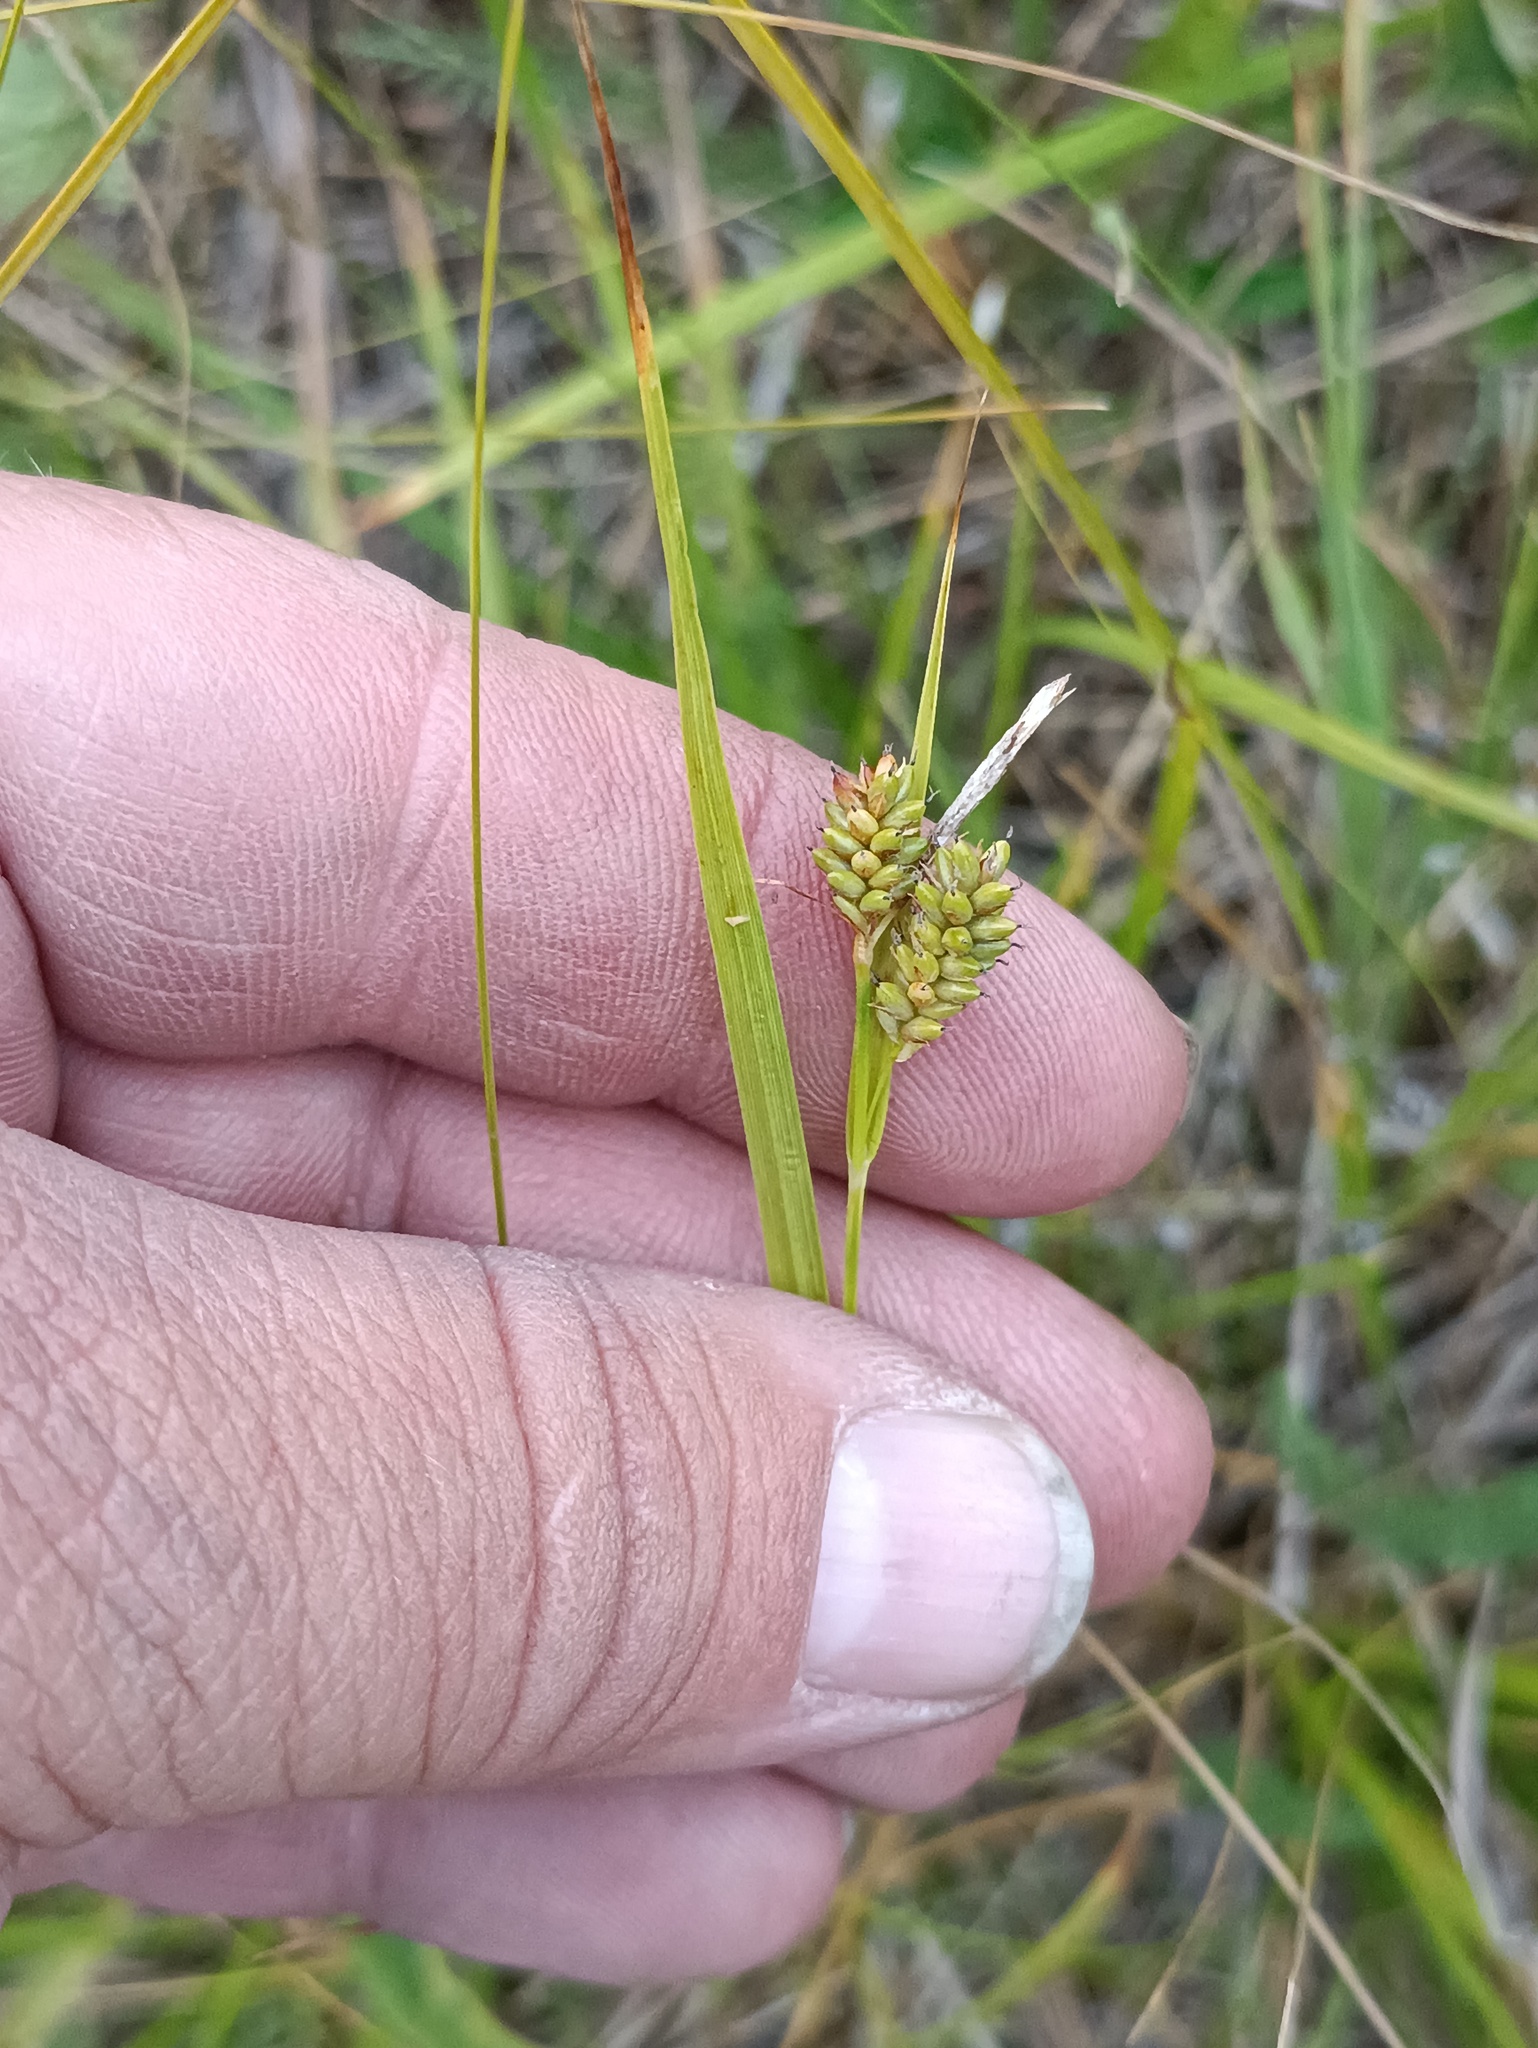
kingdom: Plantae
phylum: Tracheophyta
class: Liliopsida
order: Poales
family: Cyperaceae
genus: Carex
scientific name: Carex pallescens
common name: Pale sedge
